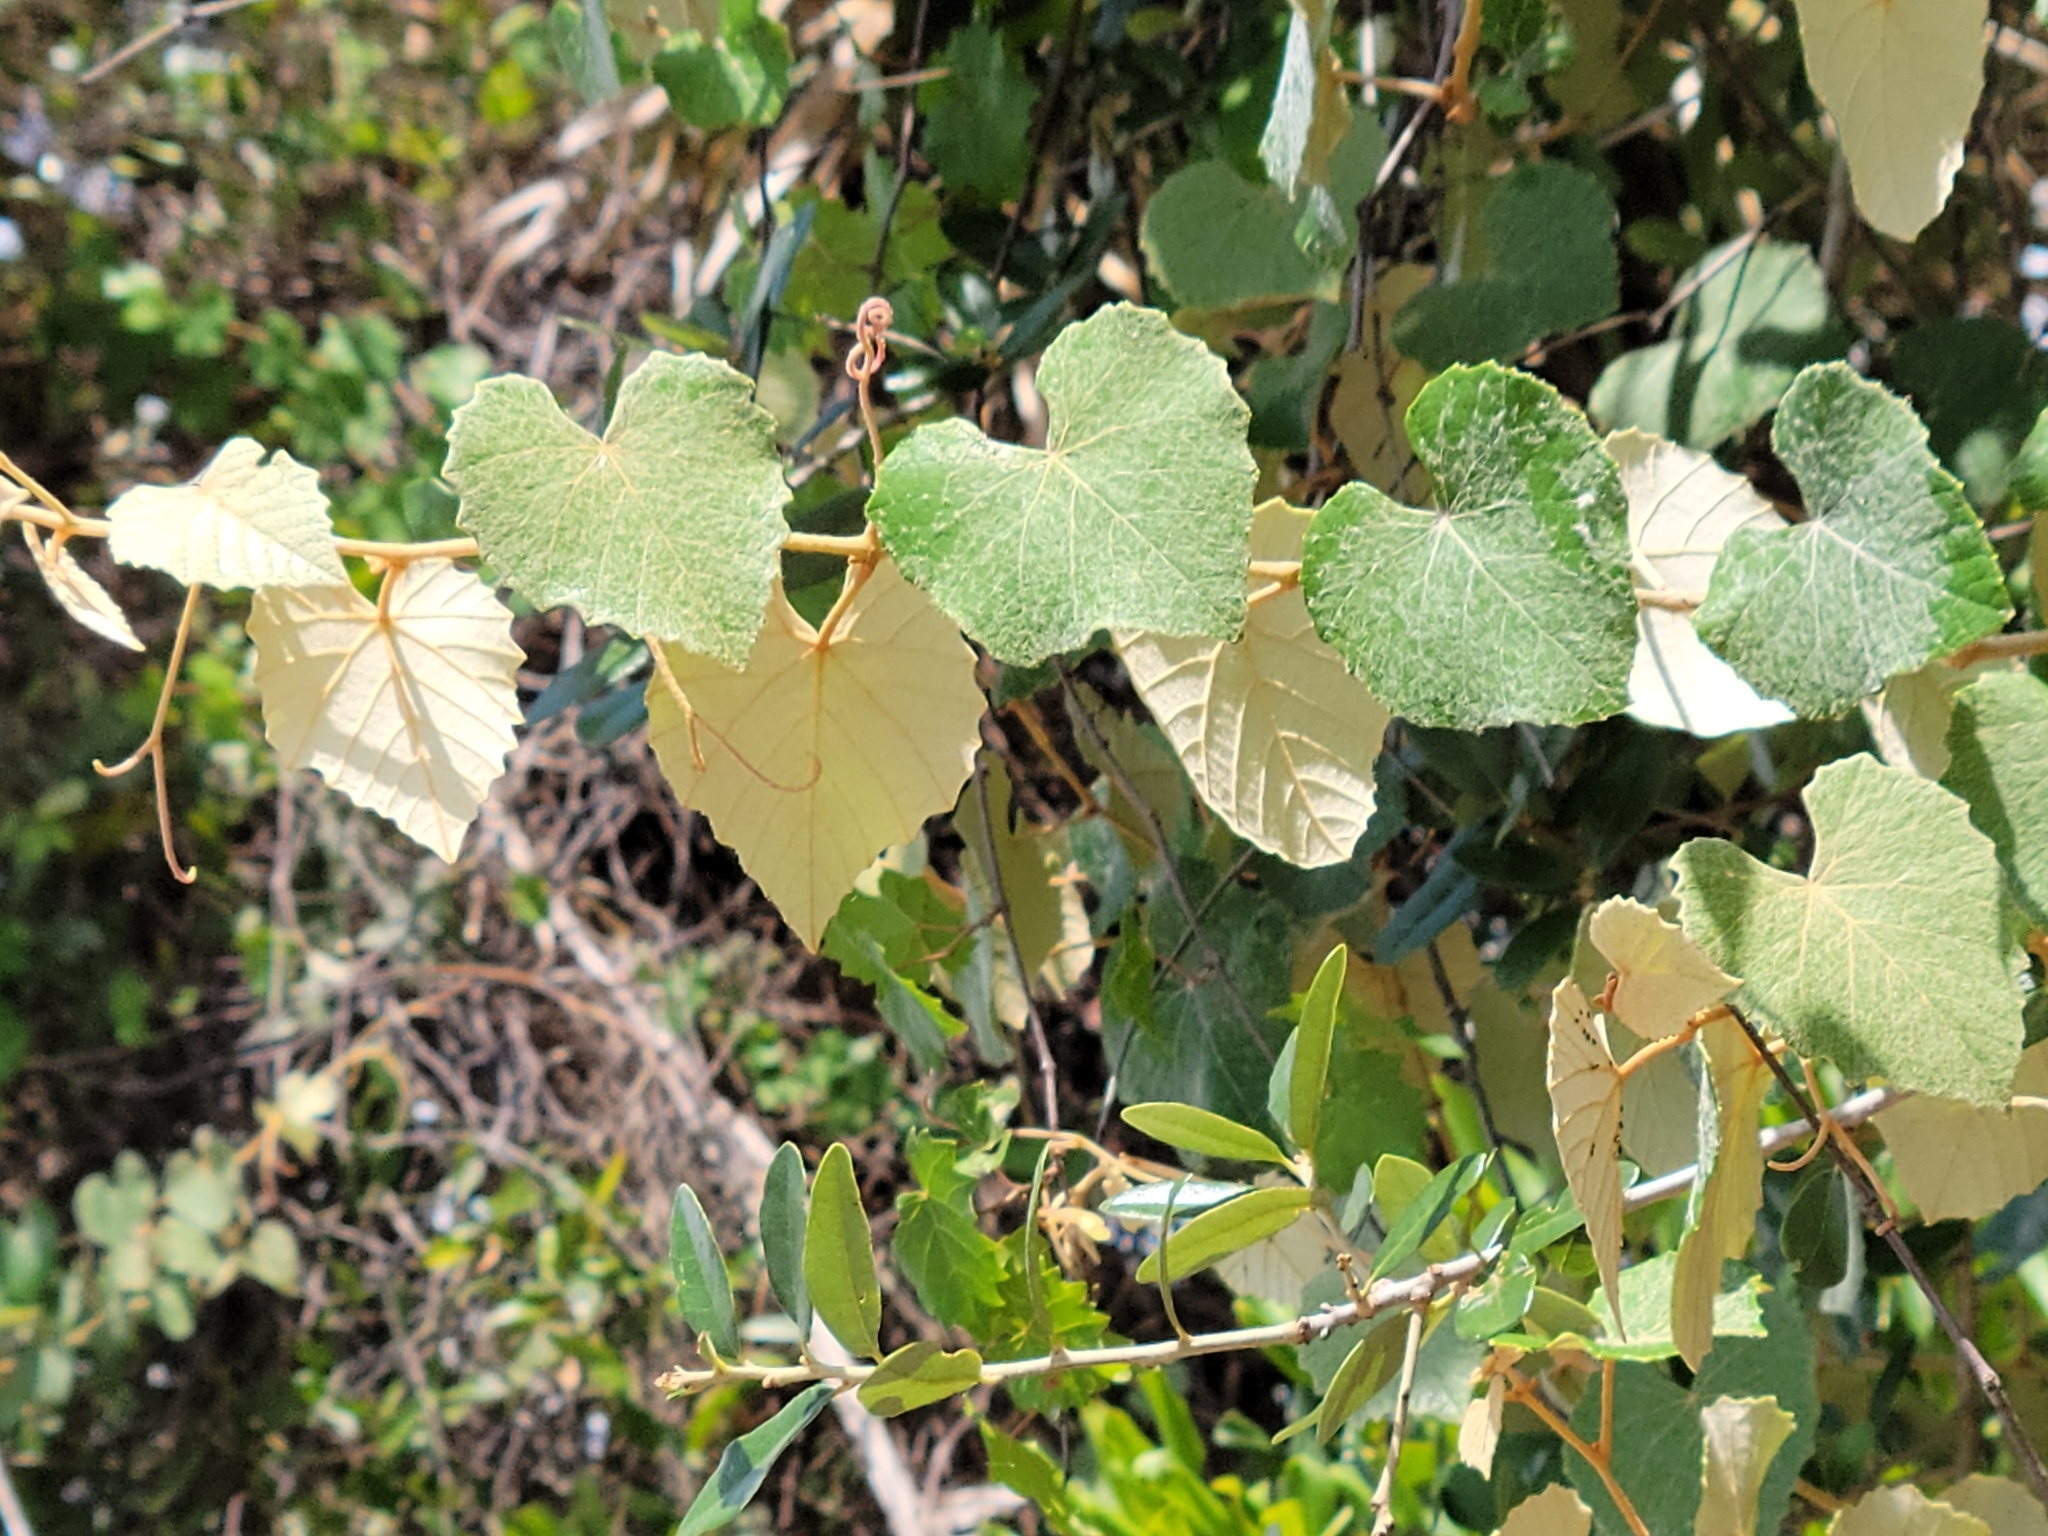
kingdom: Plantae
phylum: Tracheophyta
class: Magnoliopsida
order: Vitales
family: Vitaceae
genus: Vitis
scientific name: Vitis shuttleworthii
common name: Caloosa grape
